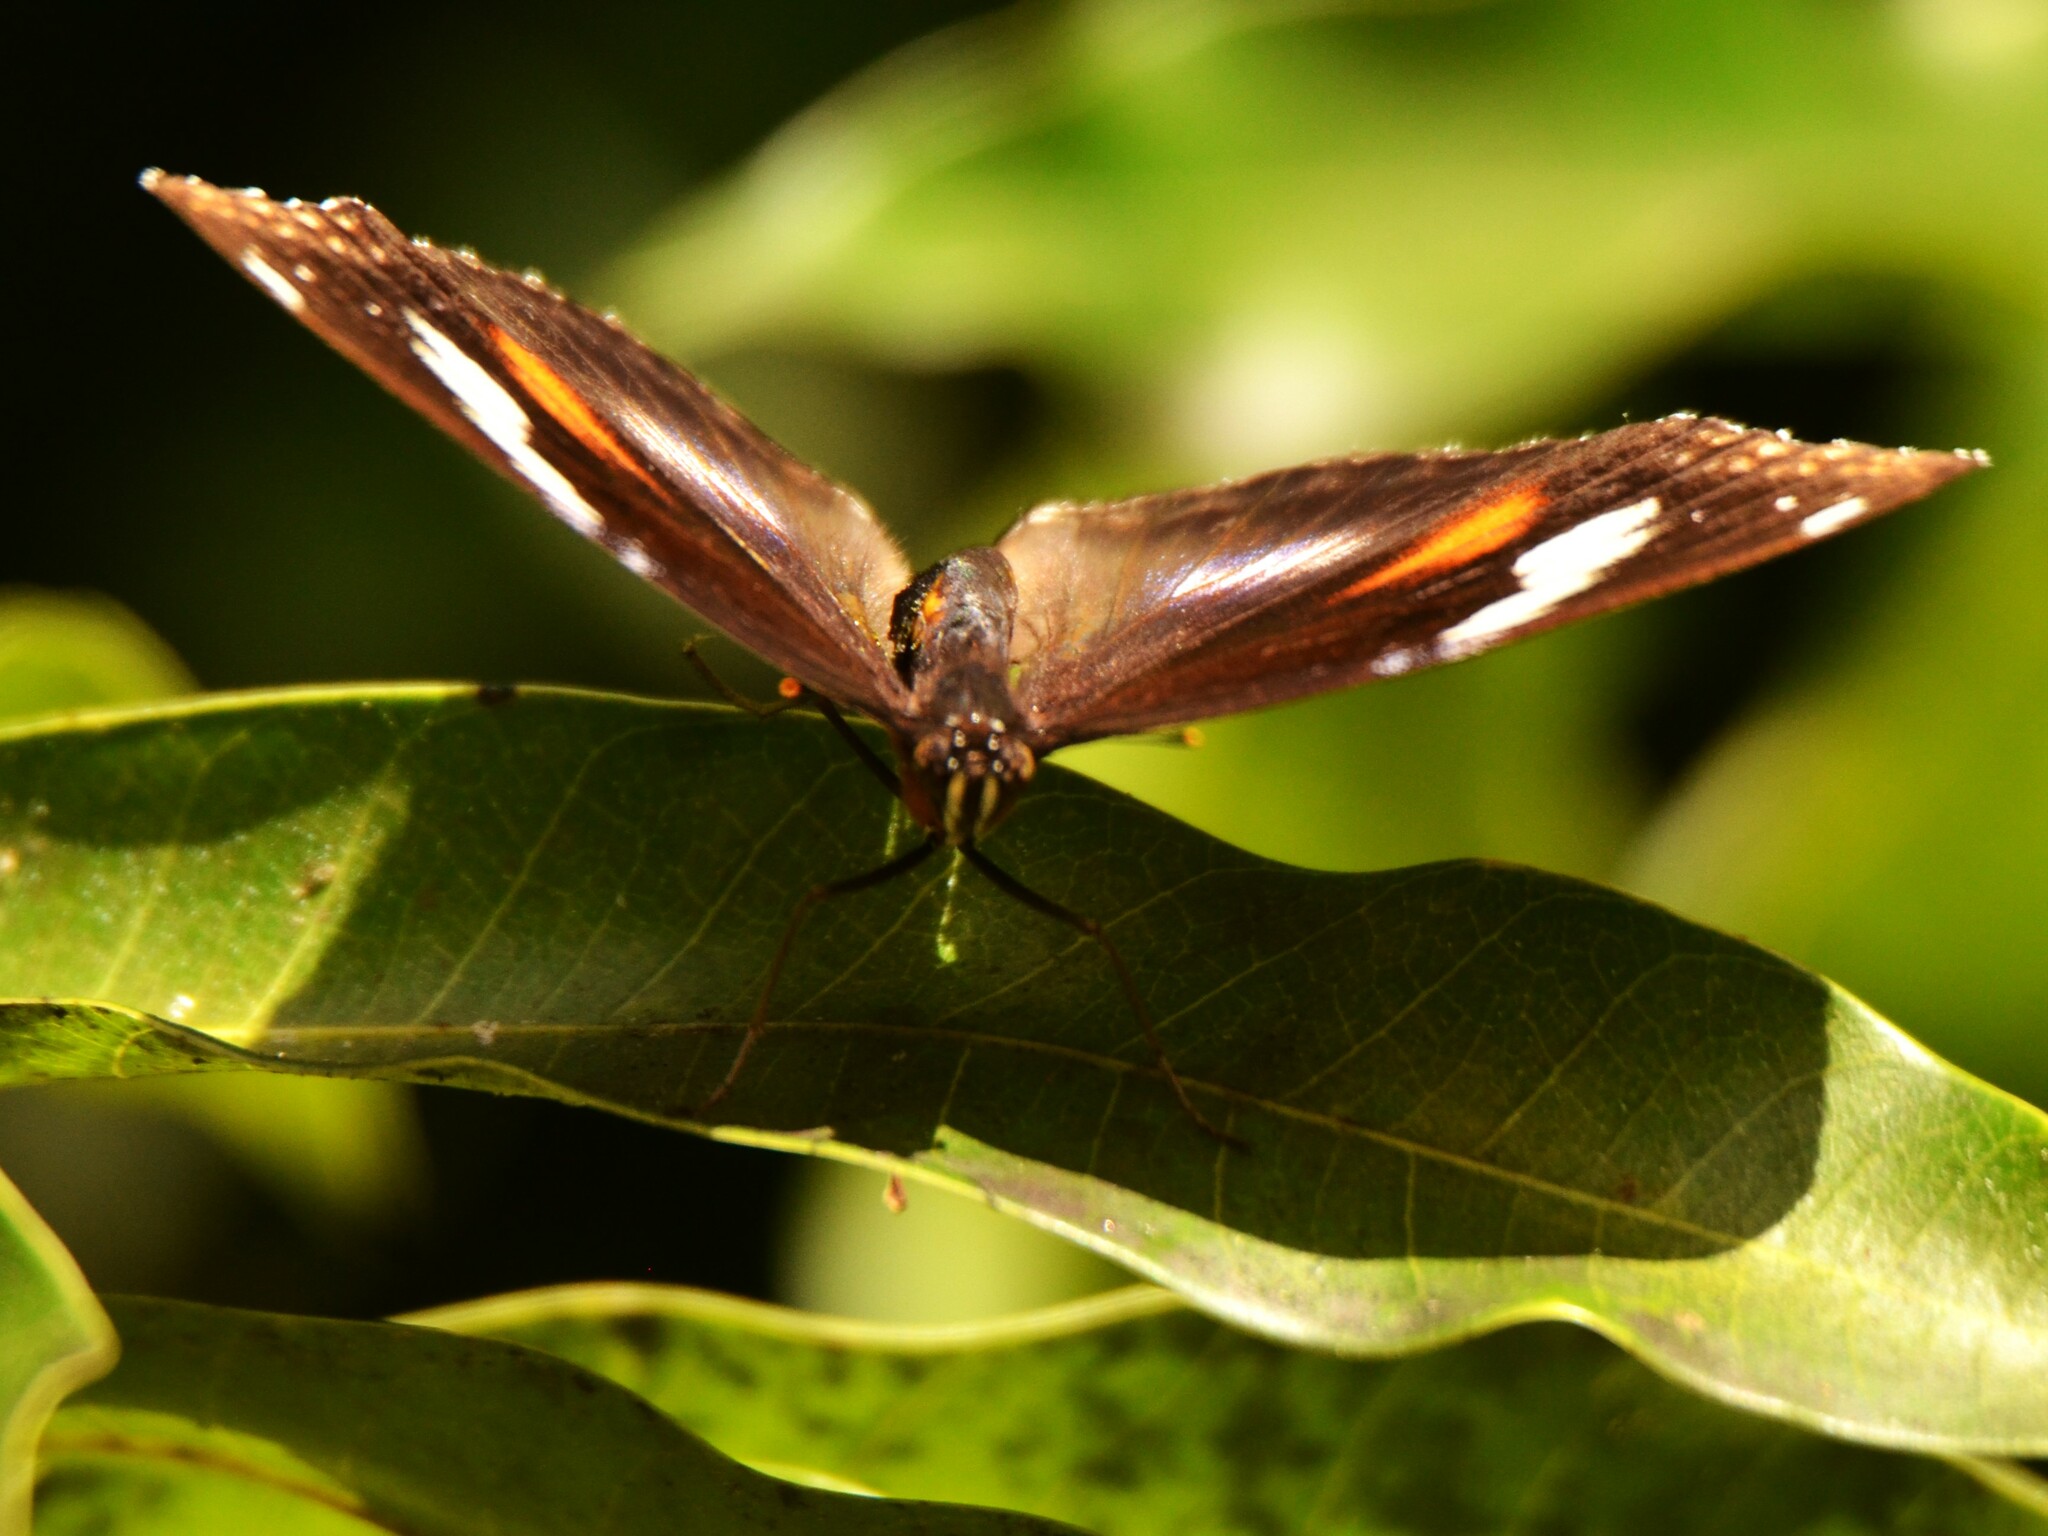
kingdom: Animalia
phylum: Arthropoda
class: Insecta
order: Lepidoptera
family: Nymphalidae
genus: Hypolimnas
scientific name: Hypolimnas bolina
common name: Great eggfly
